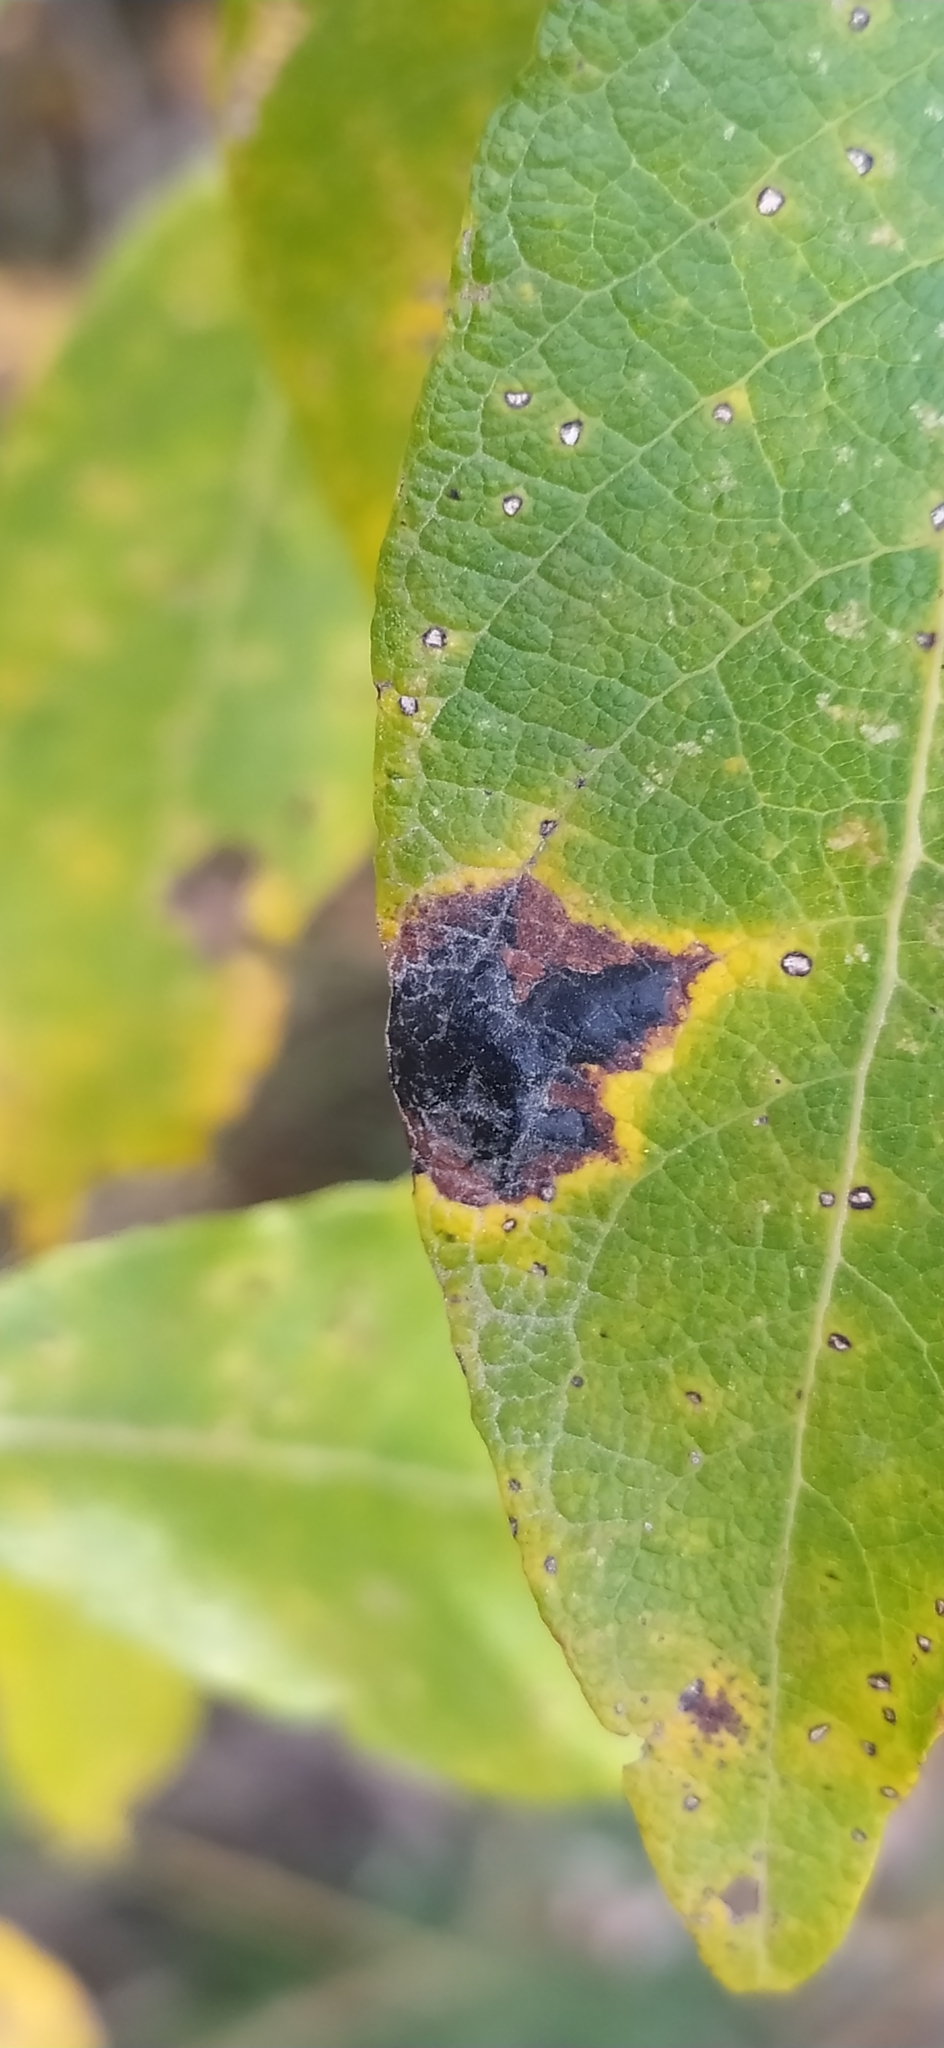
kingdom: Fungi
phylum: Ascomycota
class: Leotiomycetes
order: Rhytismatales
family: Rhytismataceae
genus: Rhytisma
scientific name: Rhytisma salicinum
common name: Willow tarspot
